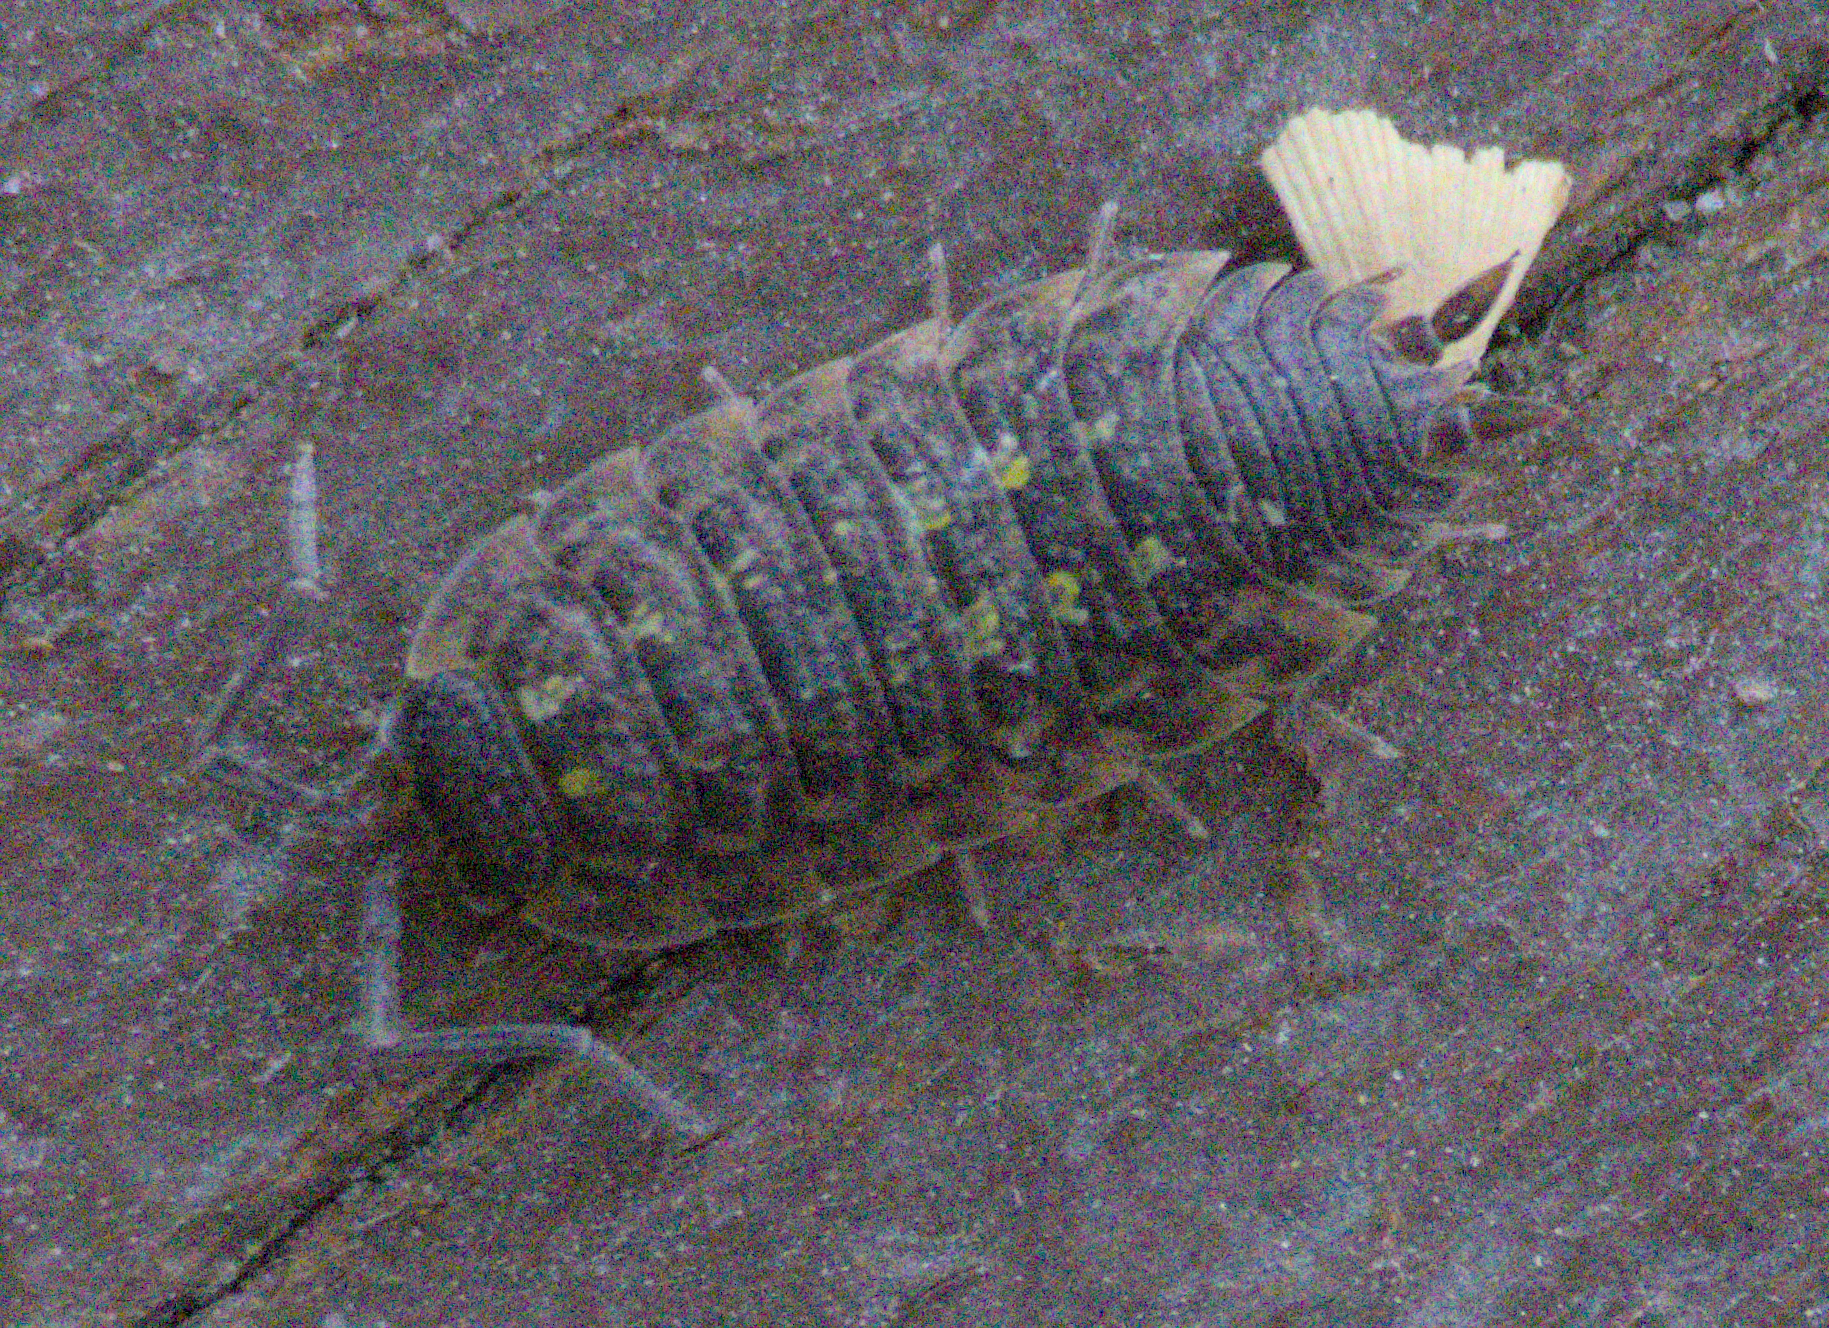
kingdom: Animalia
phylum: Arthropoda
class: Malacostraca
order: Isopoda
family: Porcellionidae
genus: Porcellio
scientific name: Porcellio spinicornis
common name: Painted woodlouse
